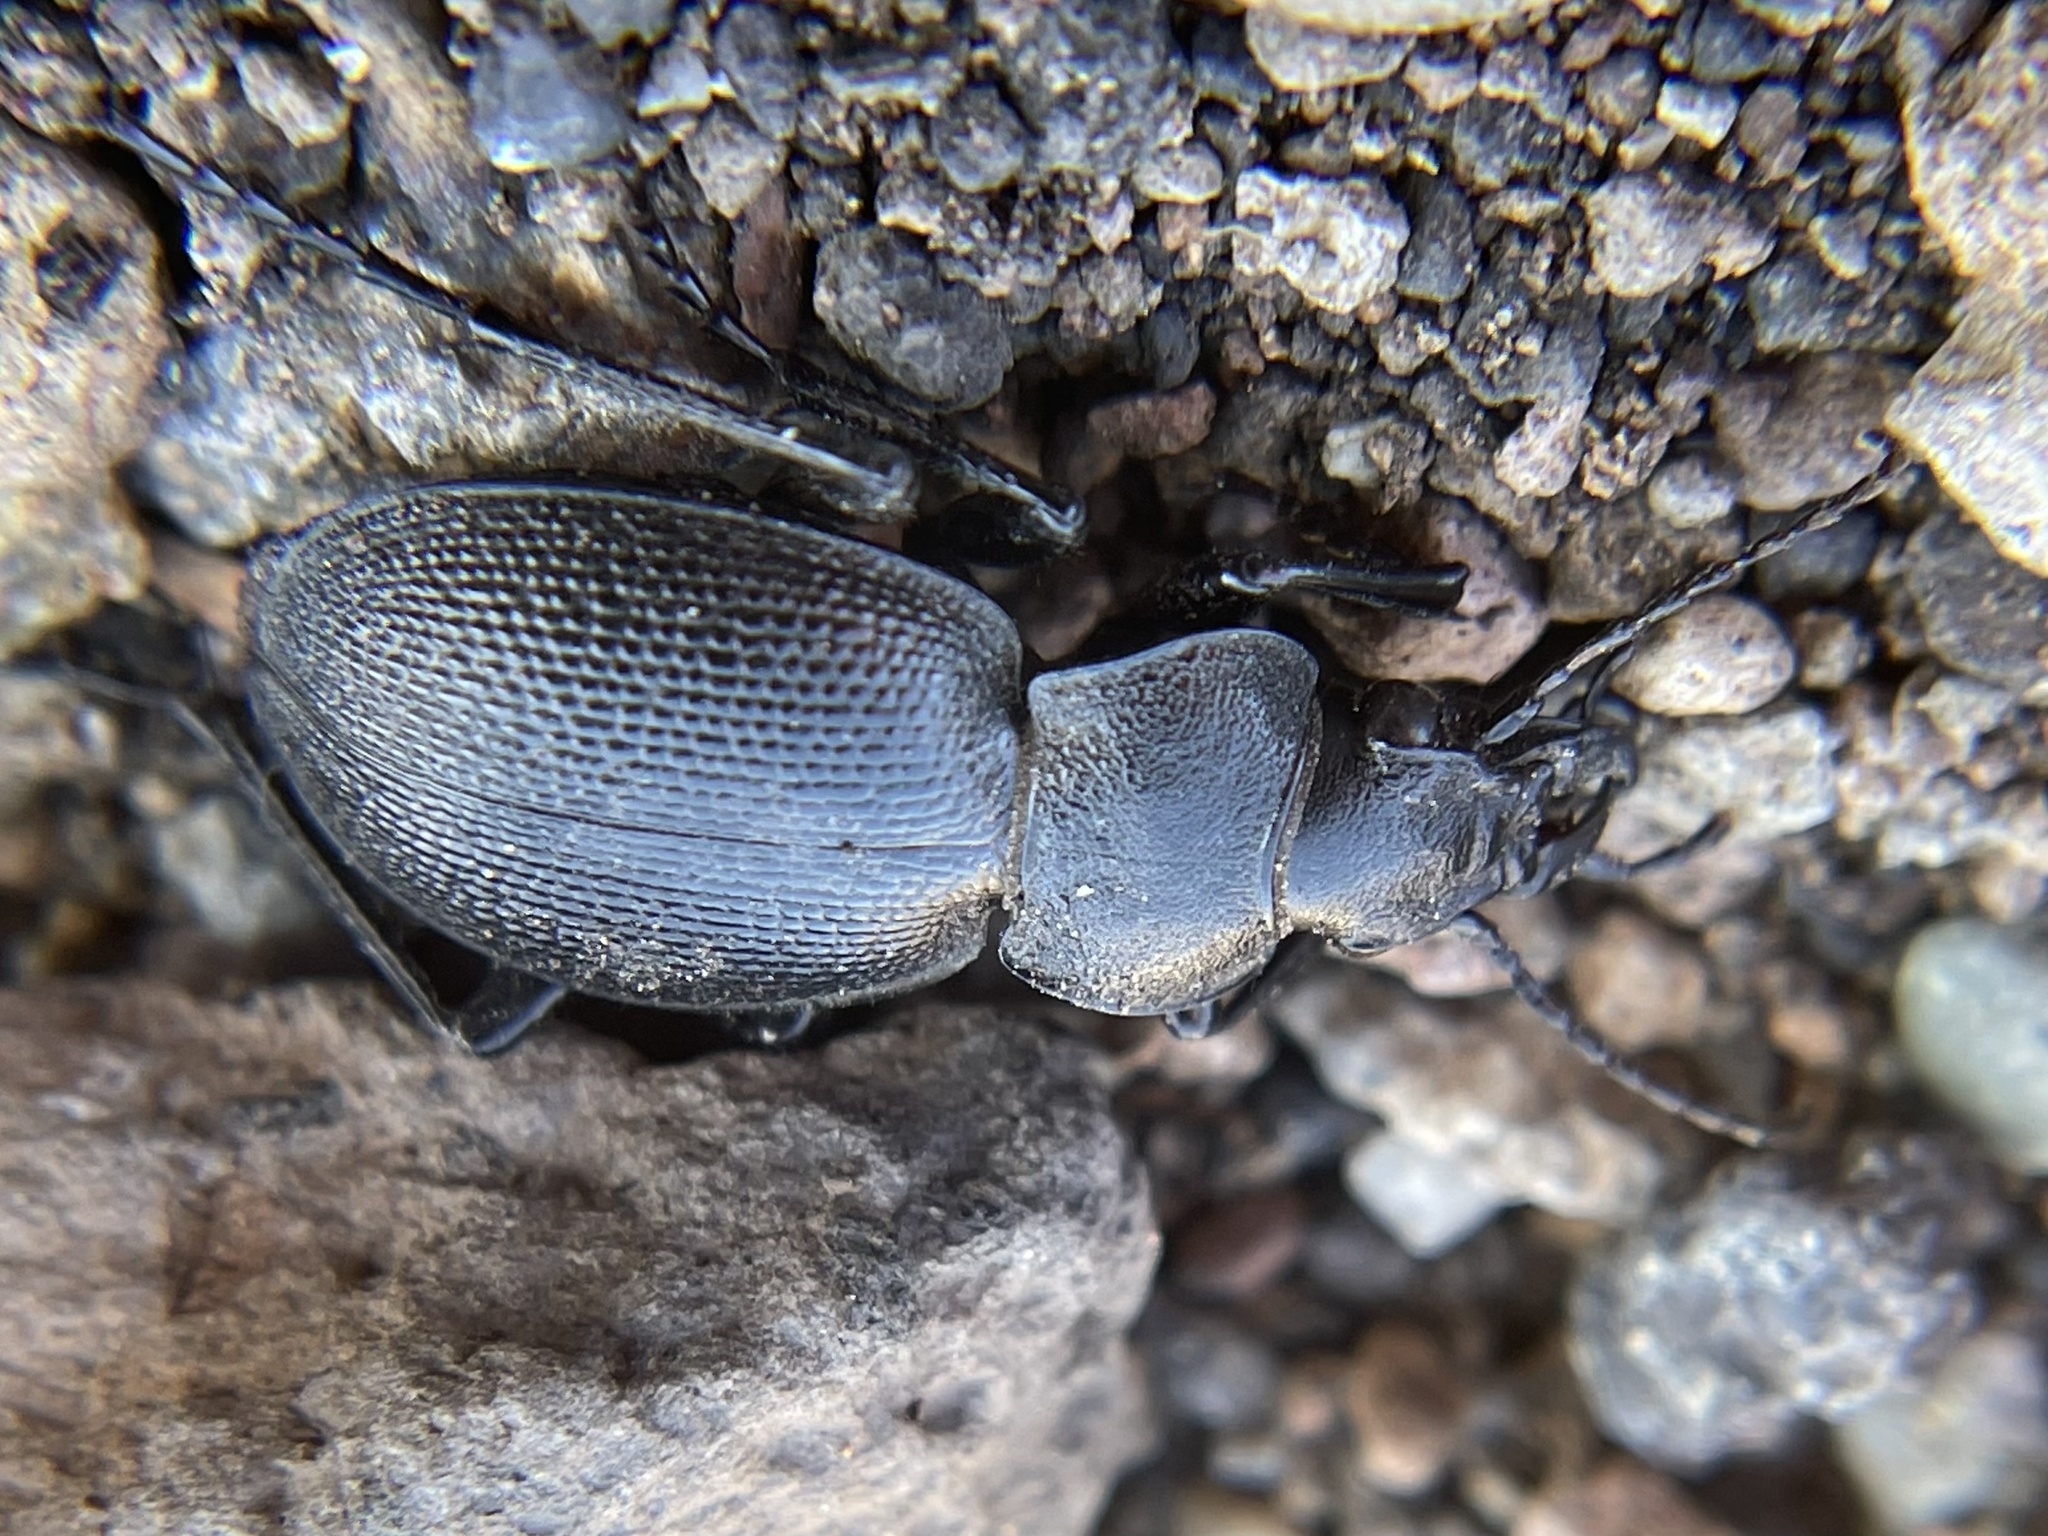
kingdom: Animalia
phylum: Arthropoda
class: Insecta
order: Coleoptera
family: Carabidae
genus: Calosoma
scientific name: Calosoma luxatum
